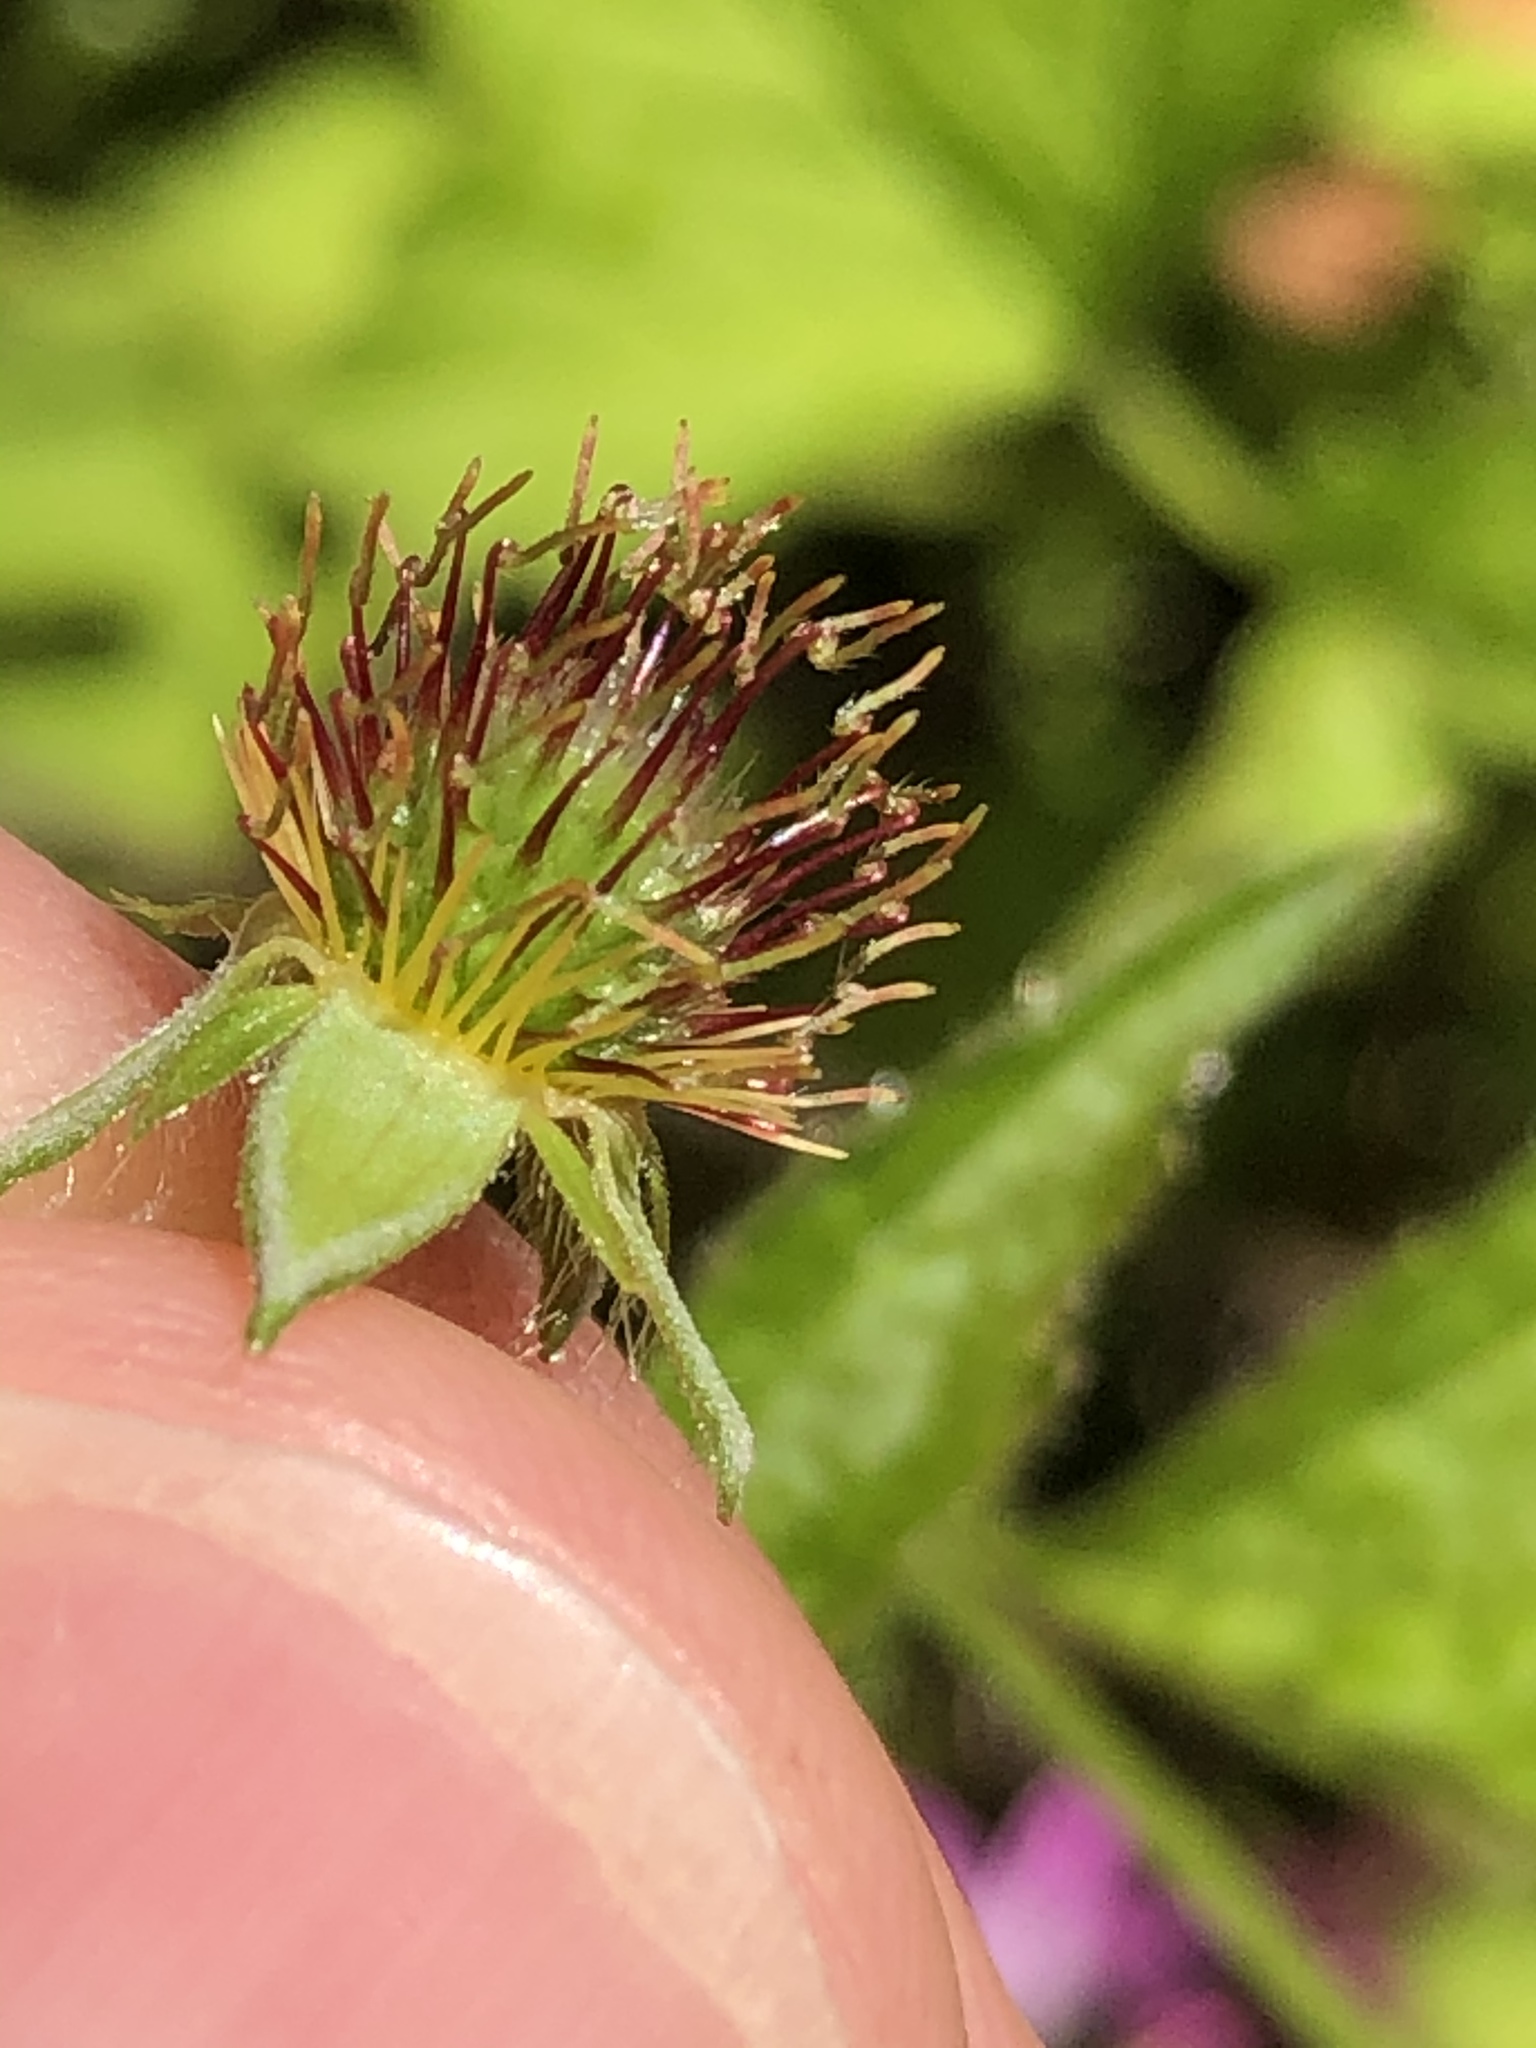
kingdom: Plantae
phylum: Tracheophyta
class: Magnoliopsida
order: Rosales
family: Rosaceae
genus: Geum
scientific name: Geum urbanum
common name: Wood avens
